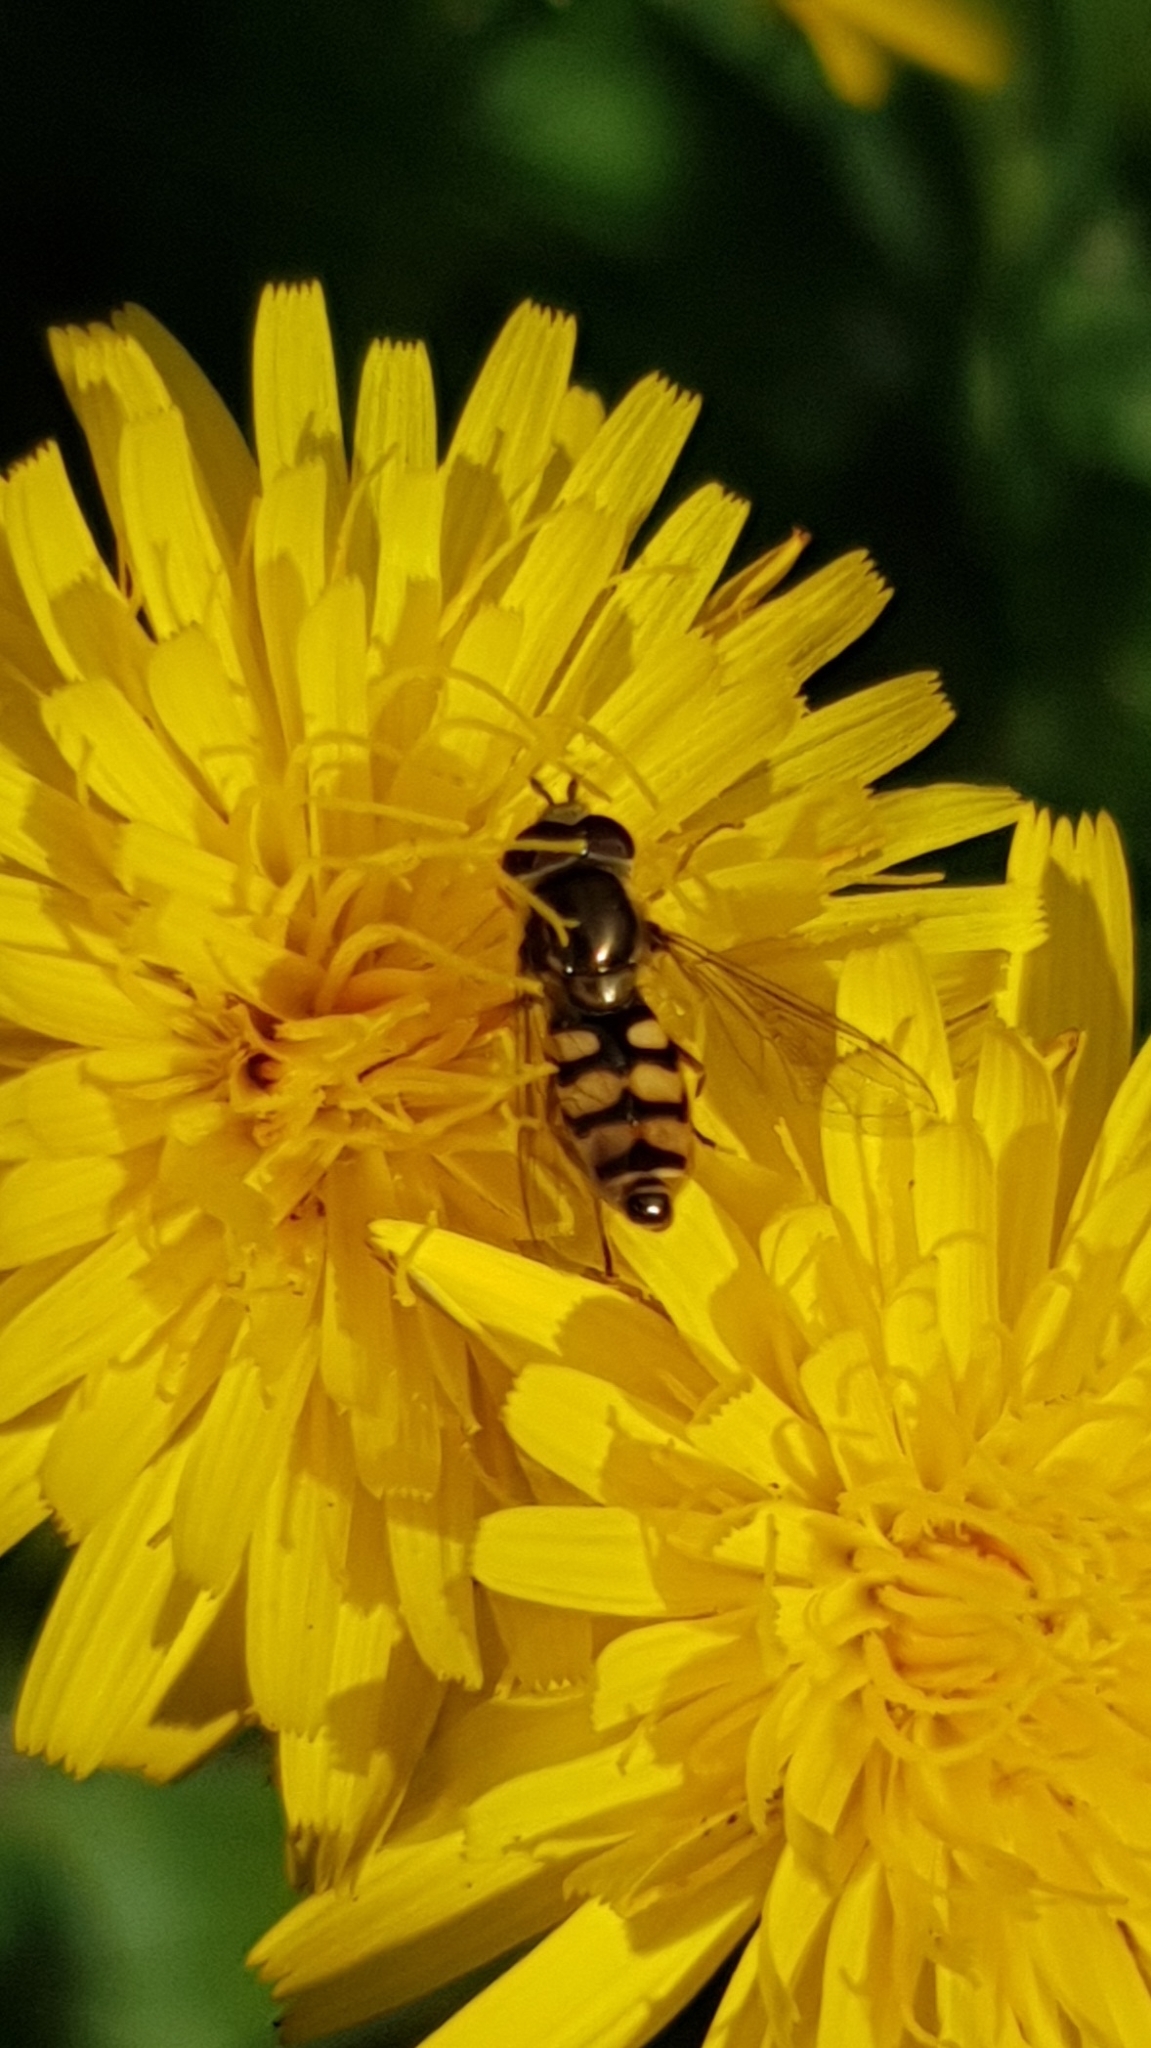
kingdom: Animalia
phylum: Arthropoda
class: Insecta
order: Diptera
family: Syrphidae
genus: Eupeodes
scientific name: Eupeodes corollae
